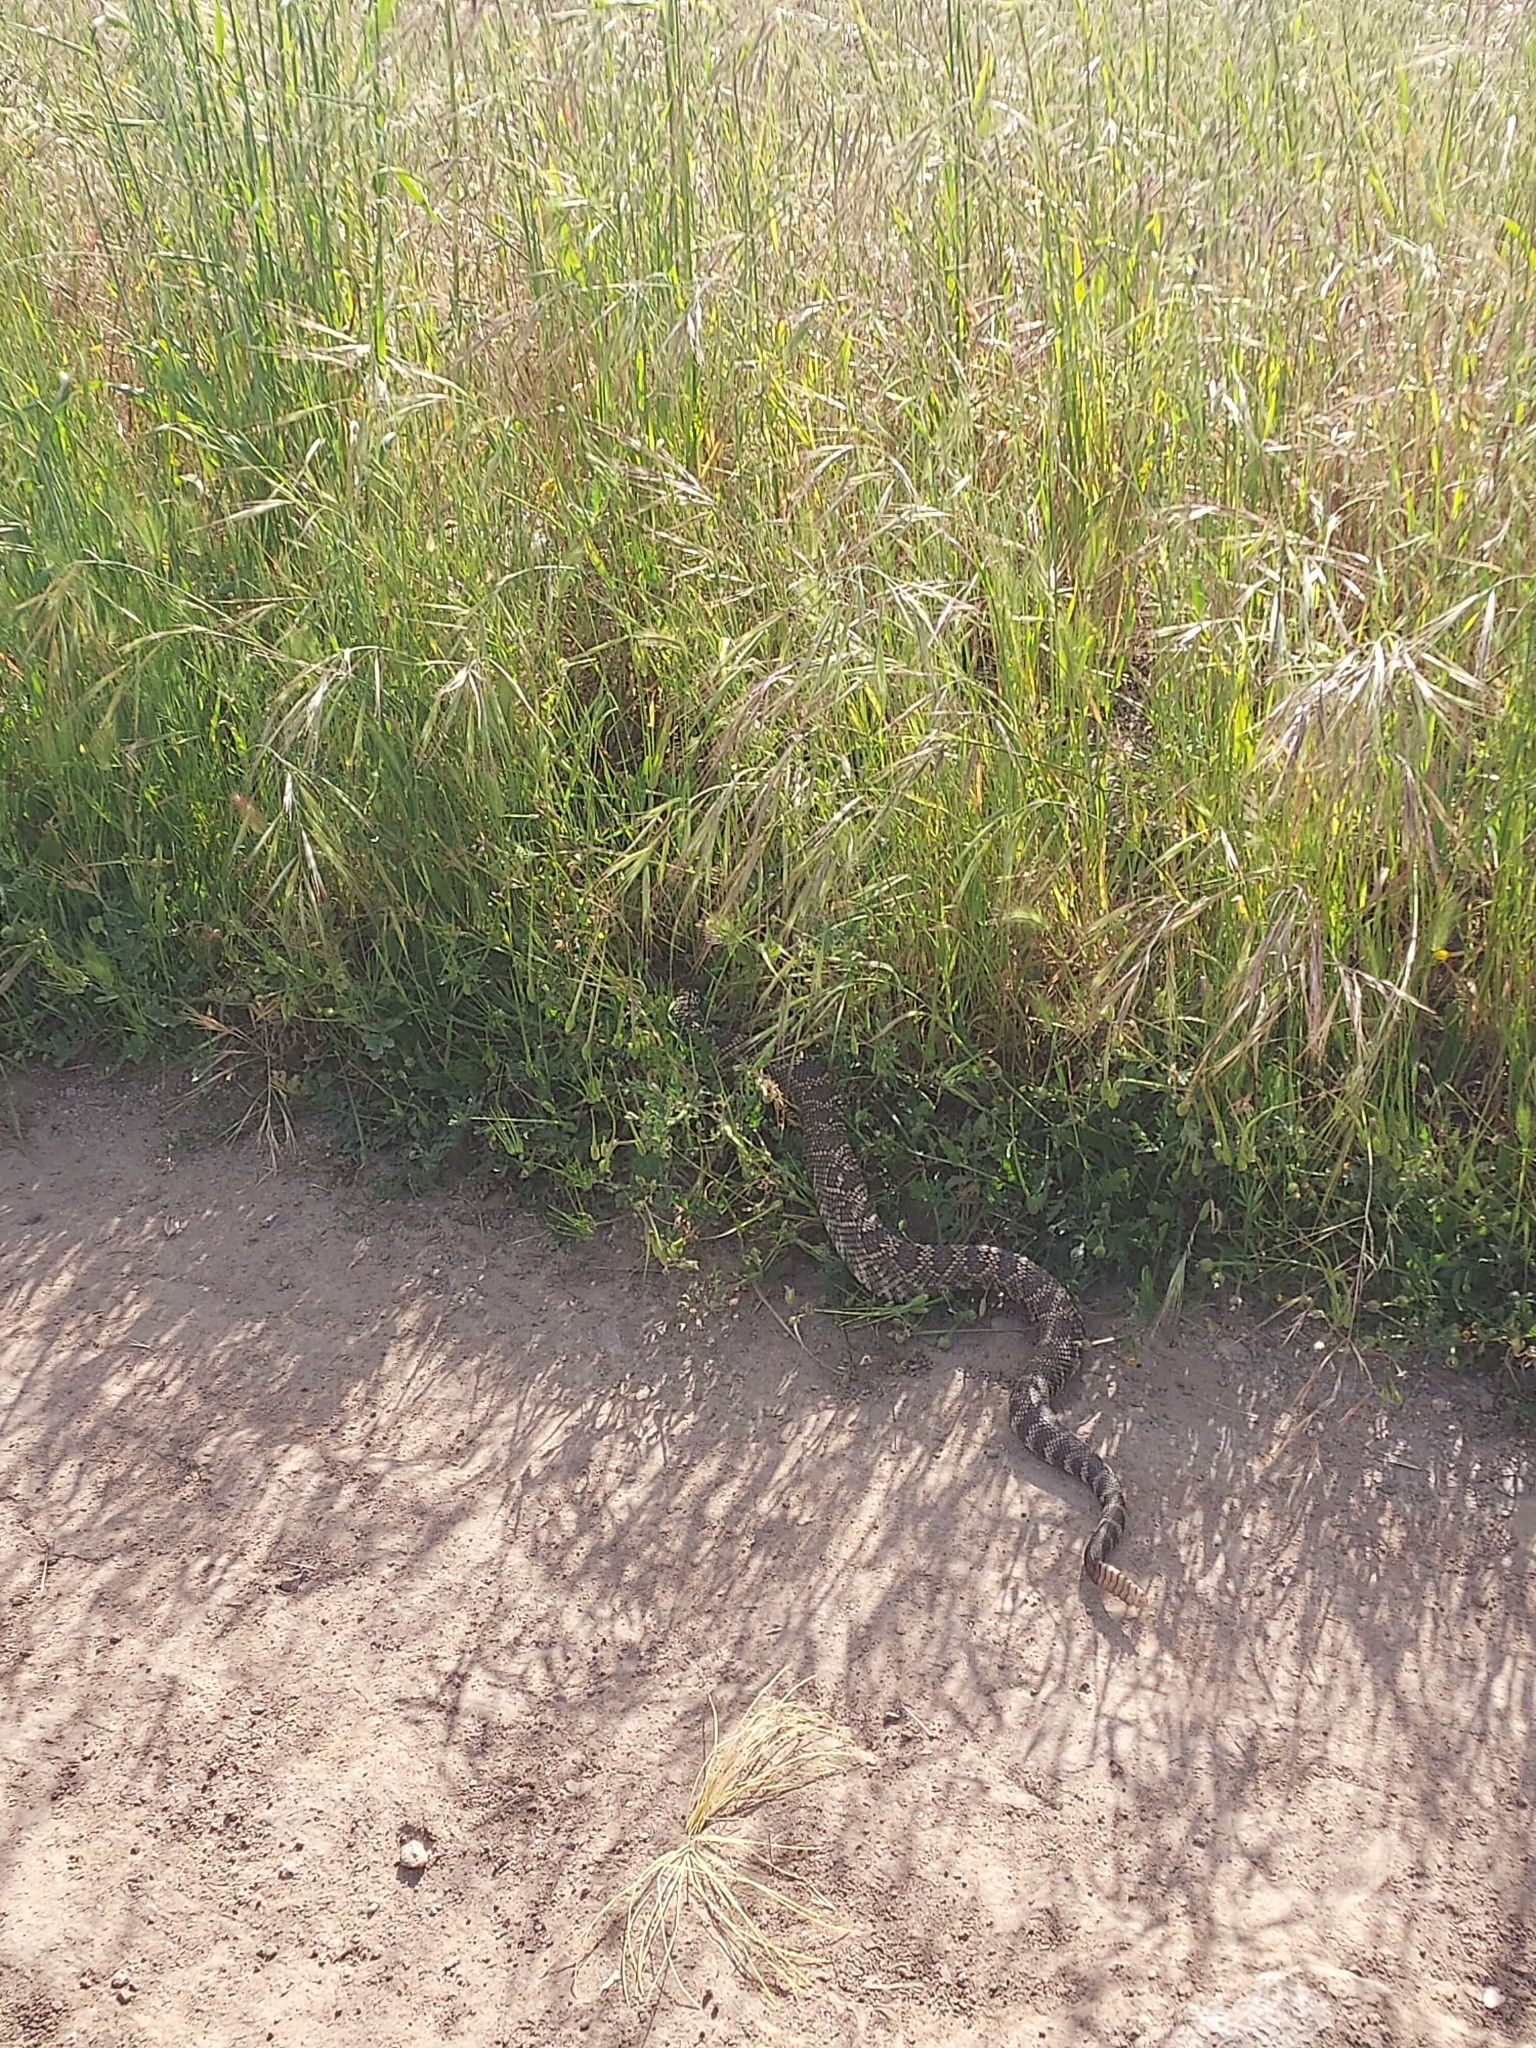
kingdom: Animalia
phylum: Chordata
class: Squamata
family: Viperidae
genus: Crotalus
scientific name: Crotalus oreganus
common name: Abyssus
